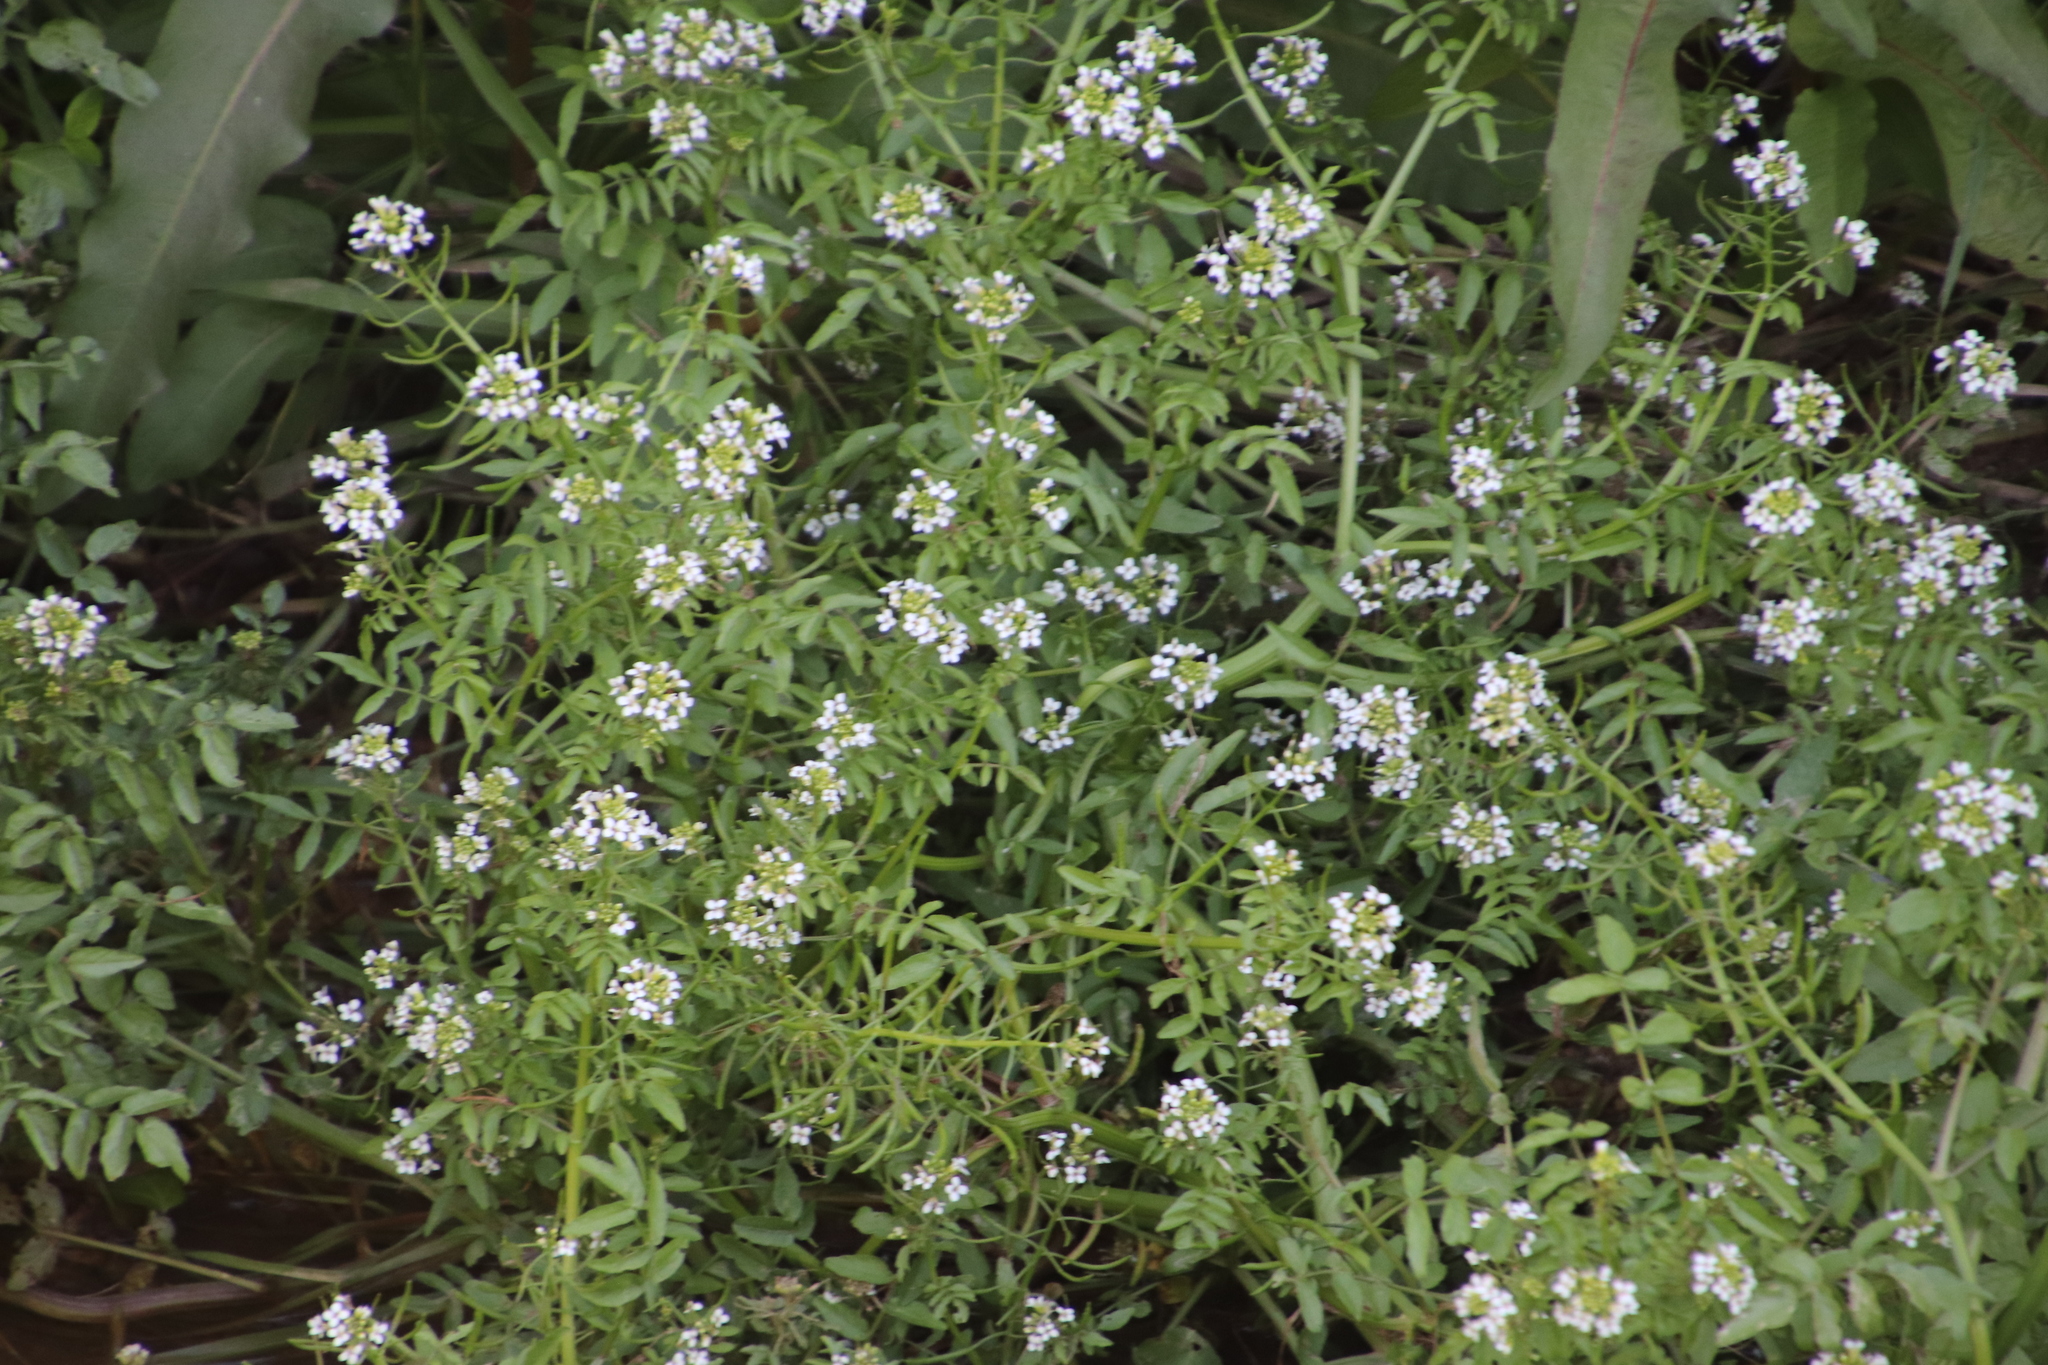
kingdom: Plantae
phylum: Tracheophyta
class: Magnoliopsida
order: Brassicales
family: Brassicaceae
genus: Nasturtium
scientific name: Nasturtium officinale
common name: Watercress
